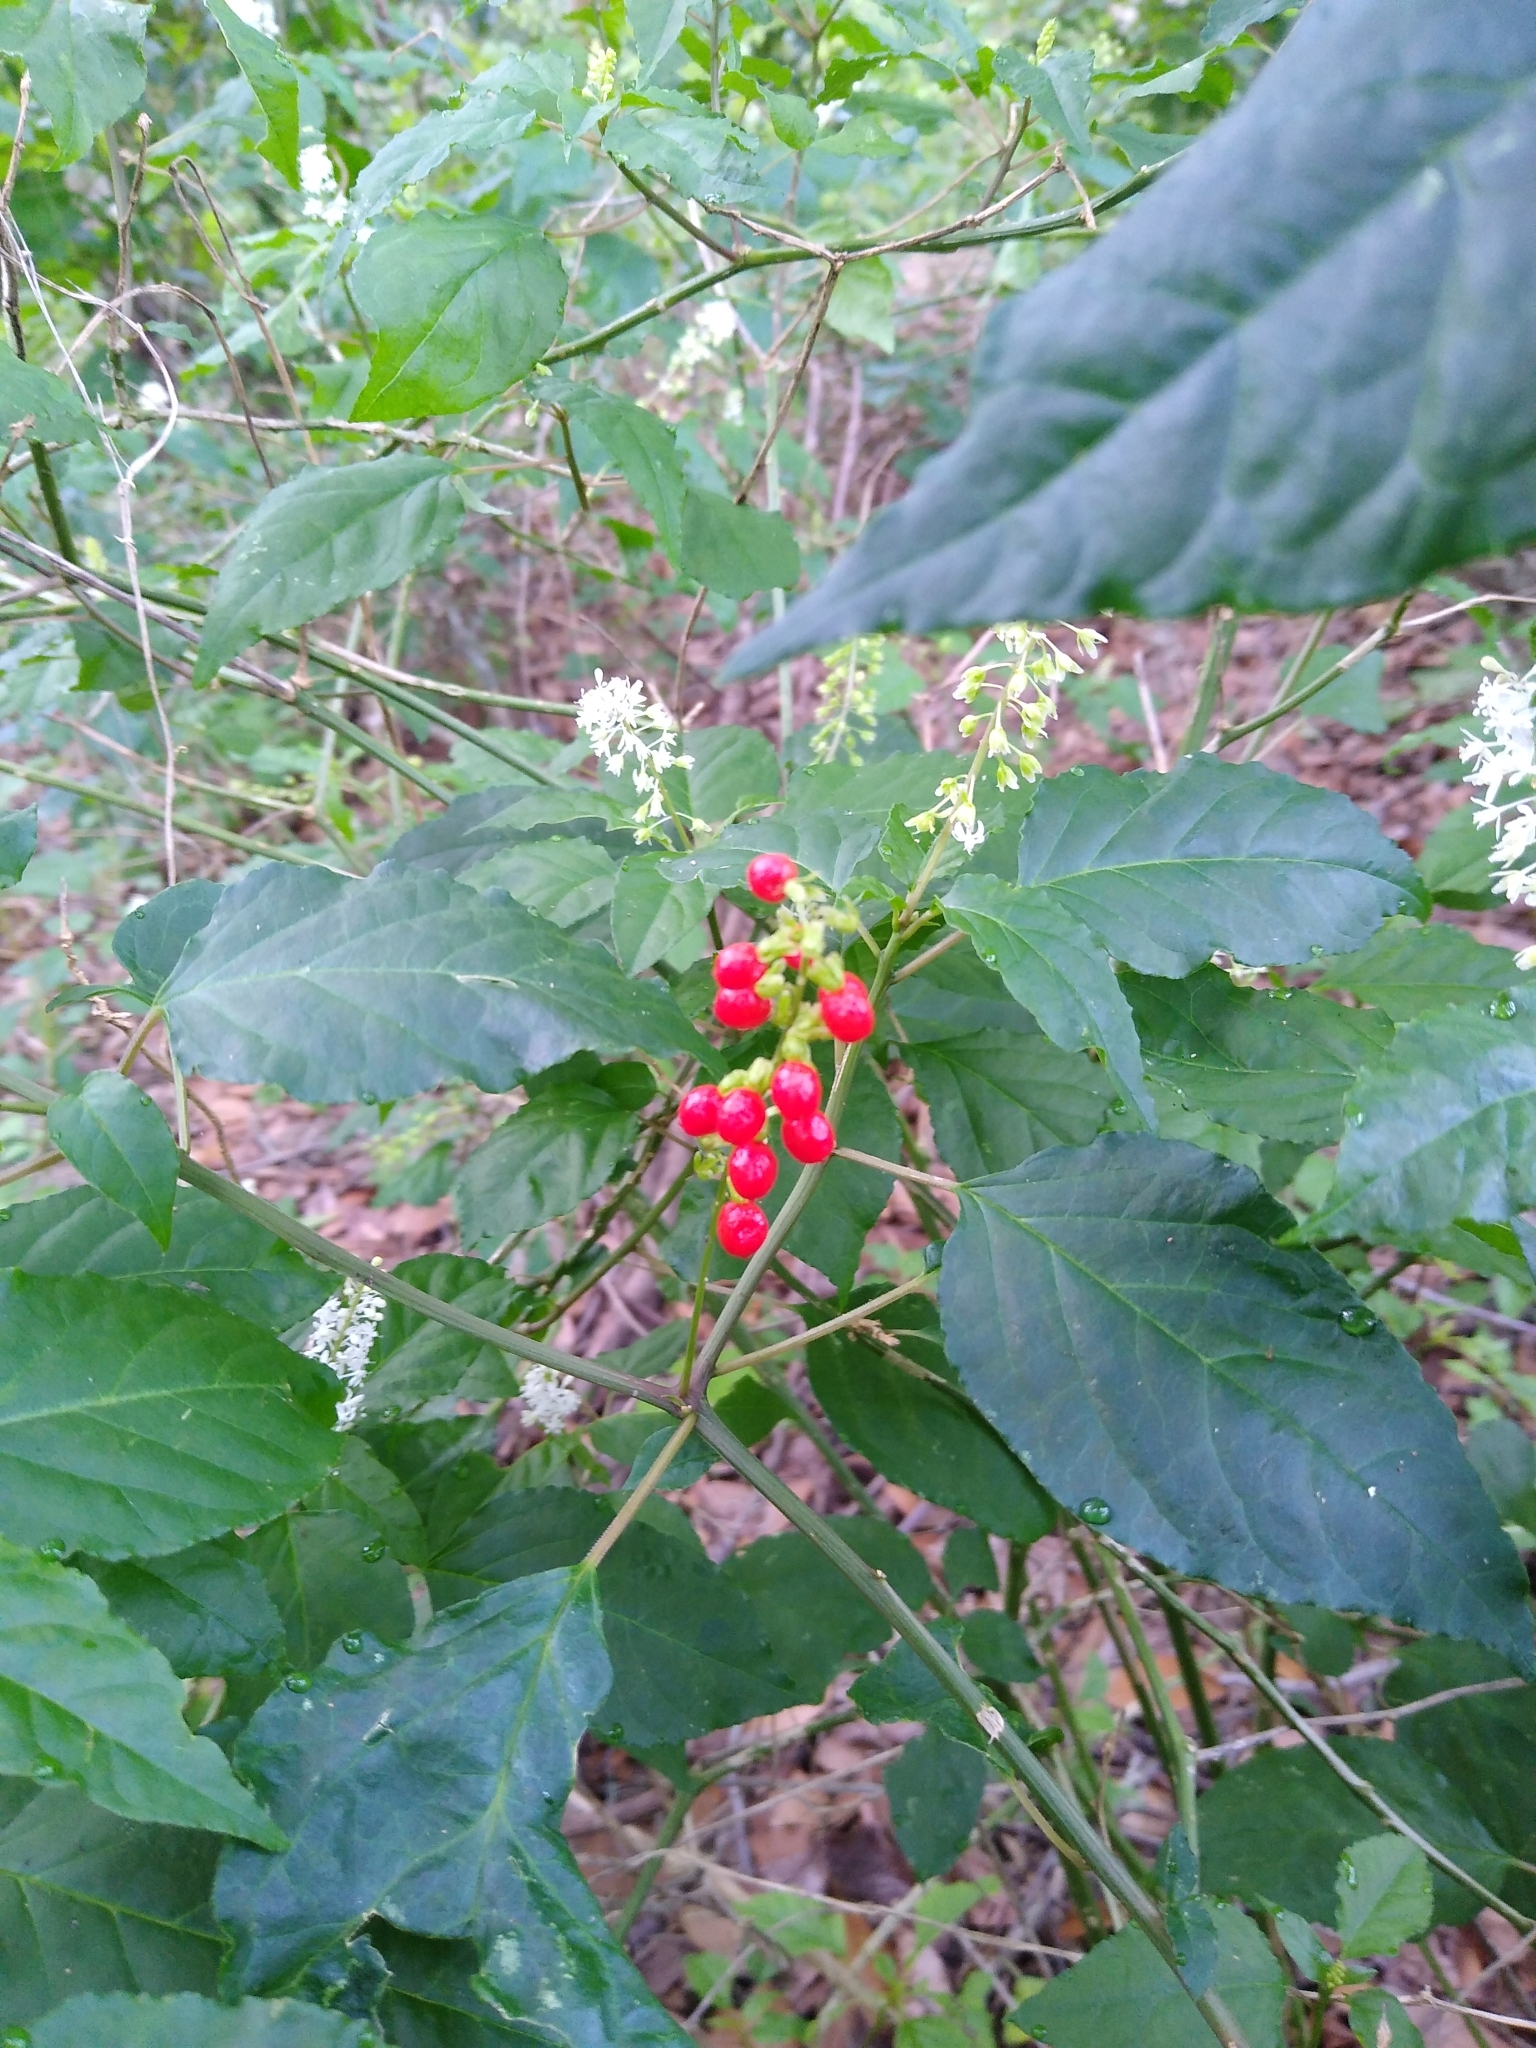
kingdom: Plantae
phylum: Tracheophyta
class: Magnoliopsida
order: Caryophyllales
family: Phytolaccaceae
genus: Rivina
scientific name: Rivina humilis
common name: Rougeplant
